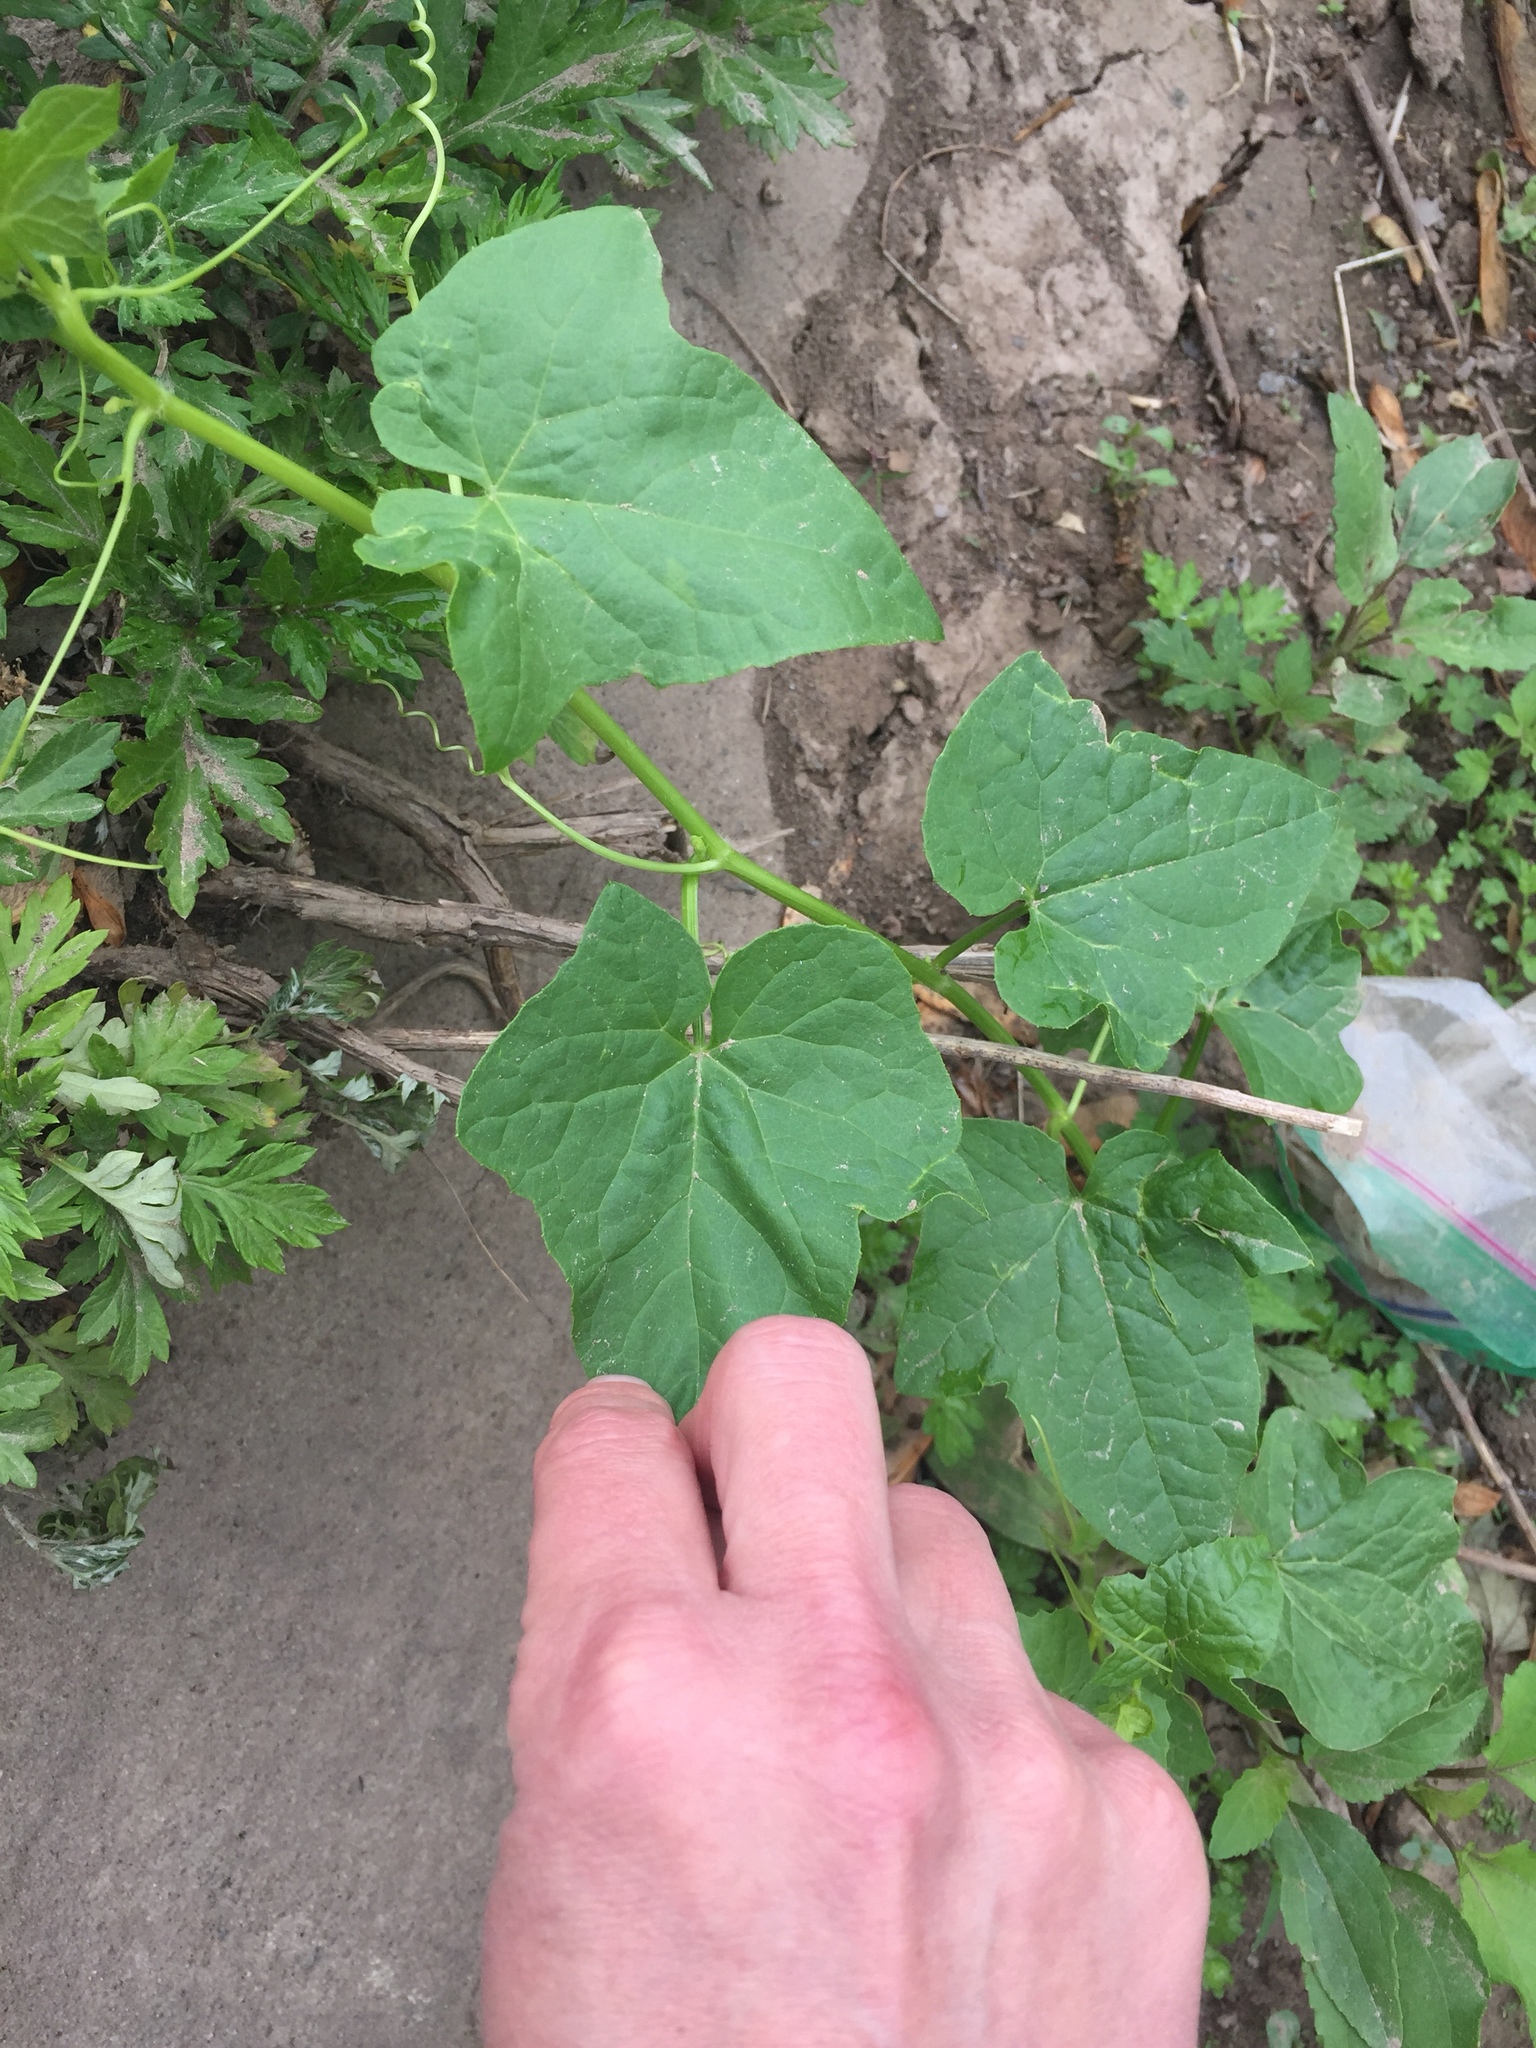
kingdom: Plantae
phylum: Tracheophyta
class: Magnoliopsida
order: Cucurbitales
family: Cucurbitaceae
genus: Echinocystis
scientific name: Echinocystis lobata
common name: Wild cucumber
